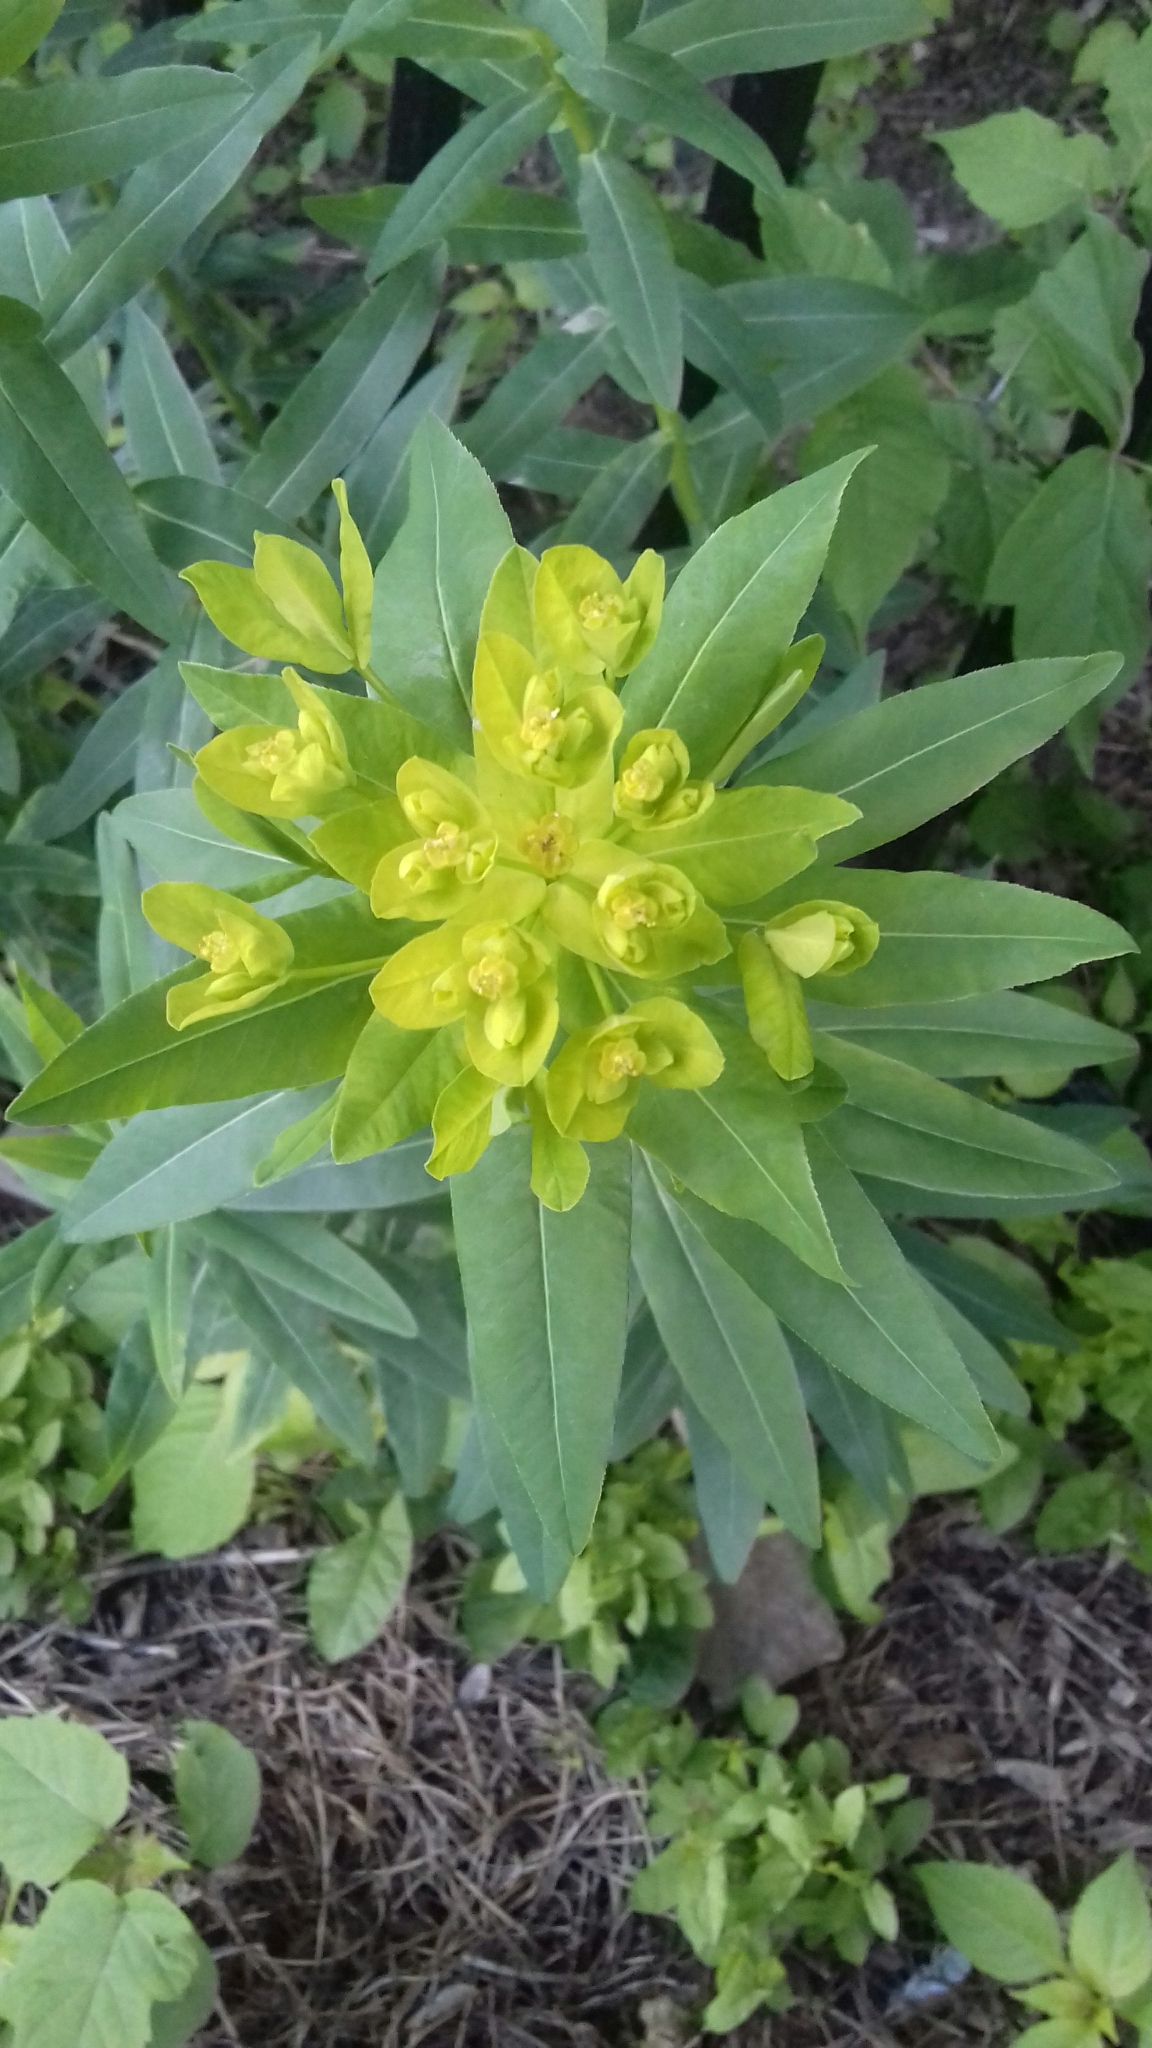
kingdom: Plantae
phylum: Tracheophyta
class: Magnoliopsida
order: Malpighiales
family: Euphorbiaceae
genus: Euphorbia
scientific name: Euphorbia semivillosa
